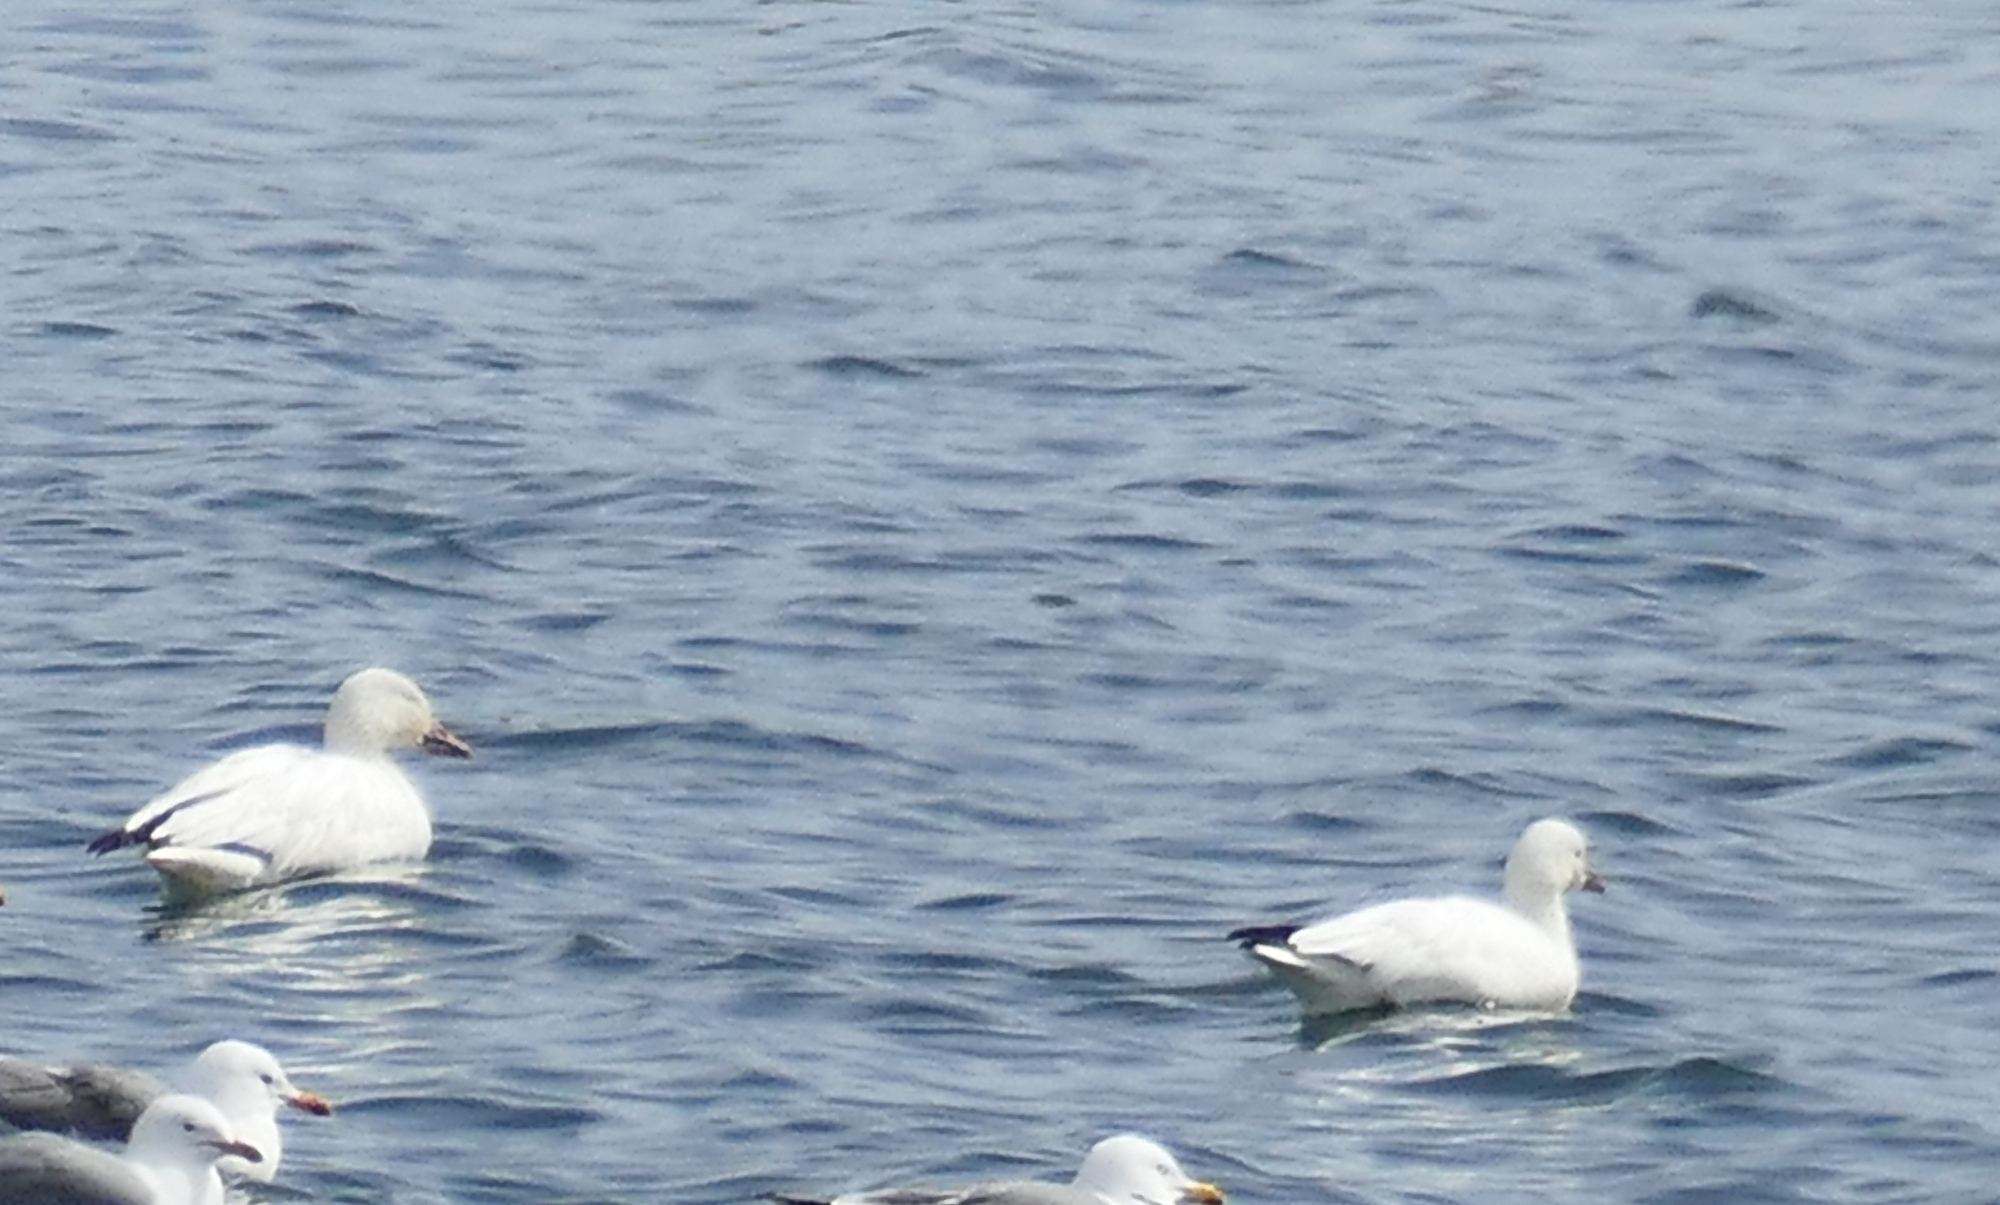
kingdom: Animalia
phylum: Chordata
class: Aves
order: Anseriformes
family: Anatidae
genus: Anser
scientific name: Anser rossii
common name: Ross's goose
